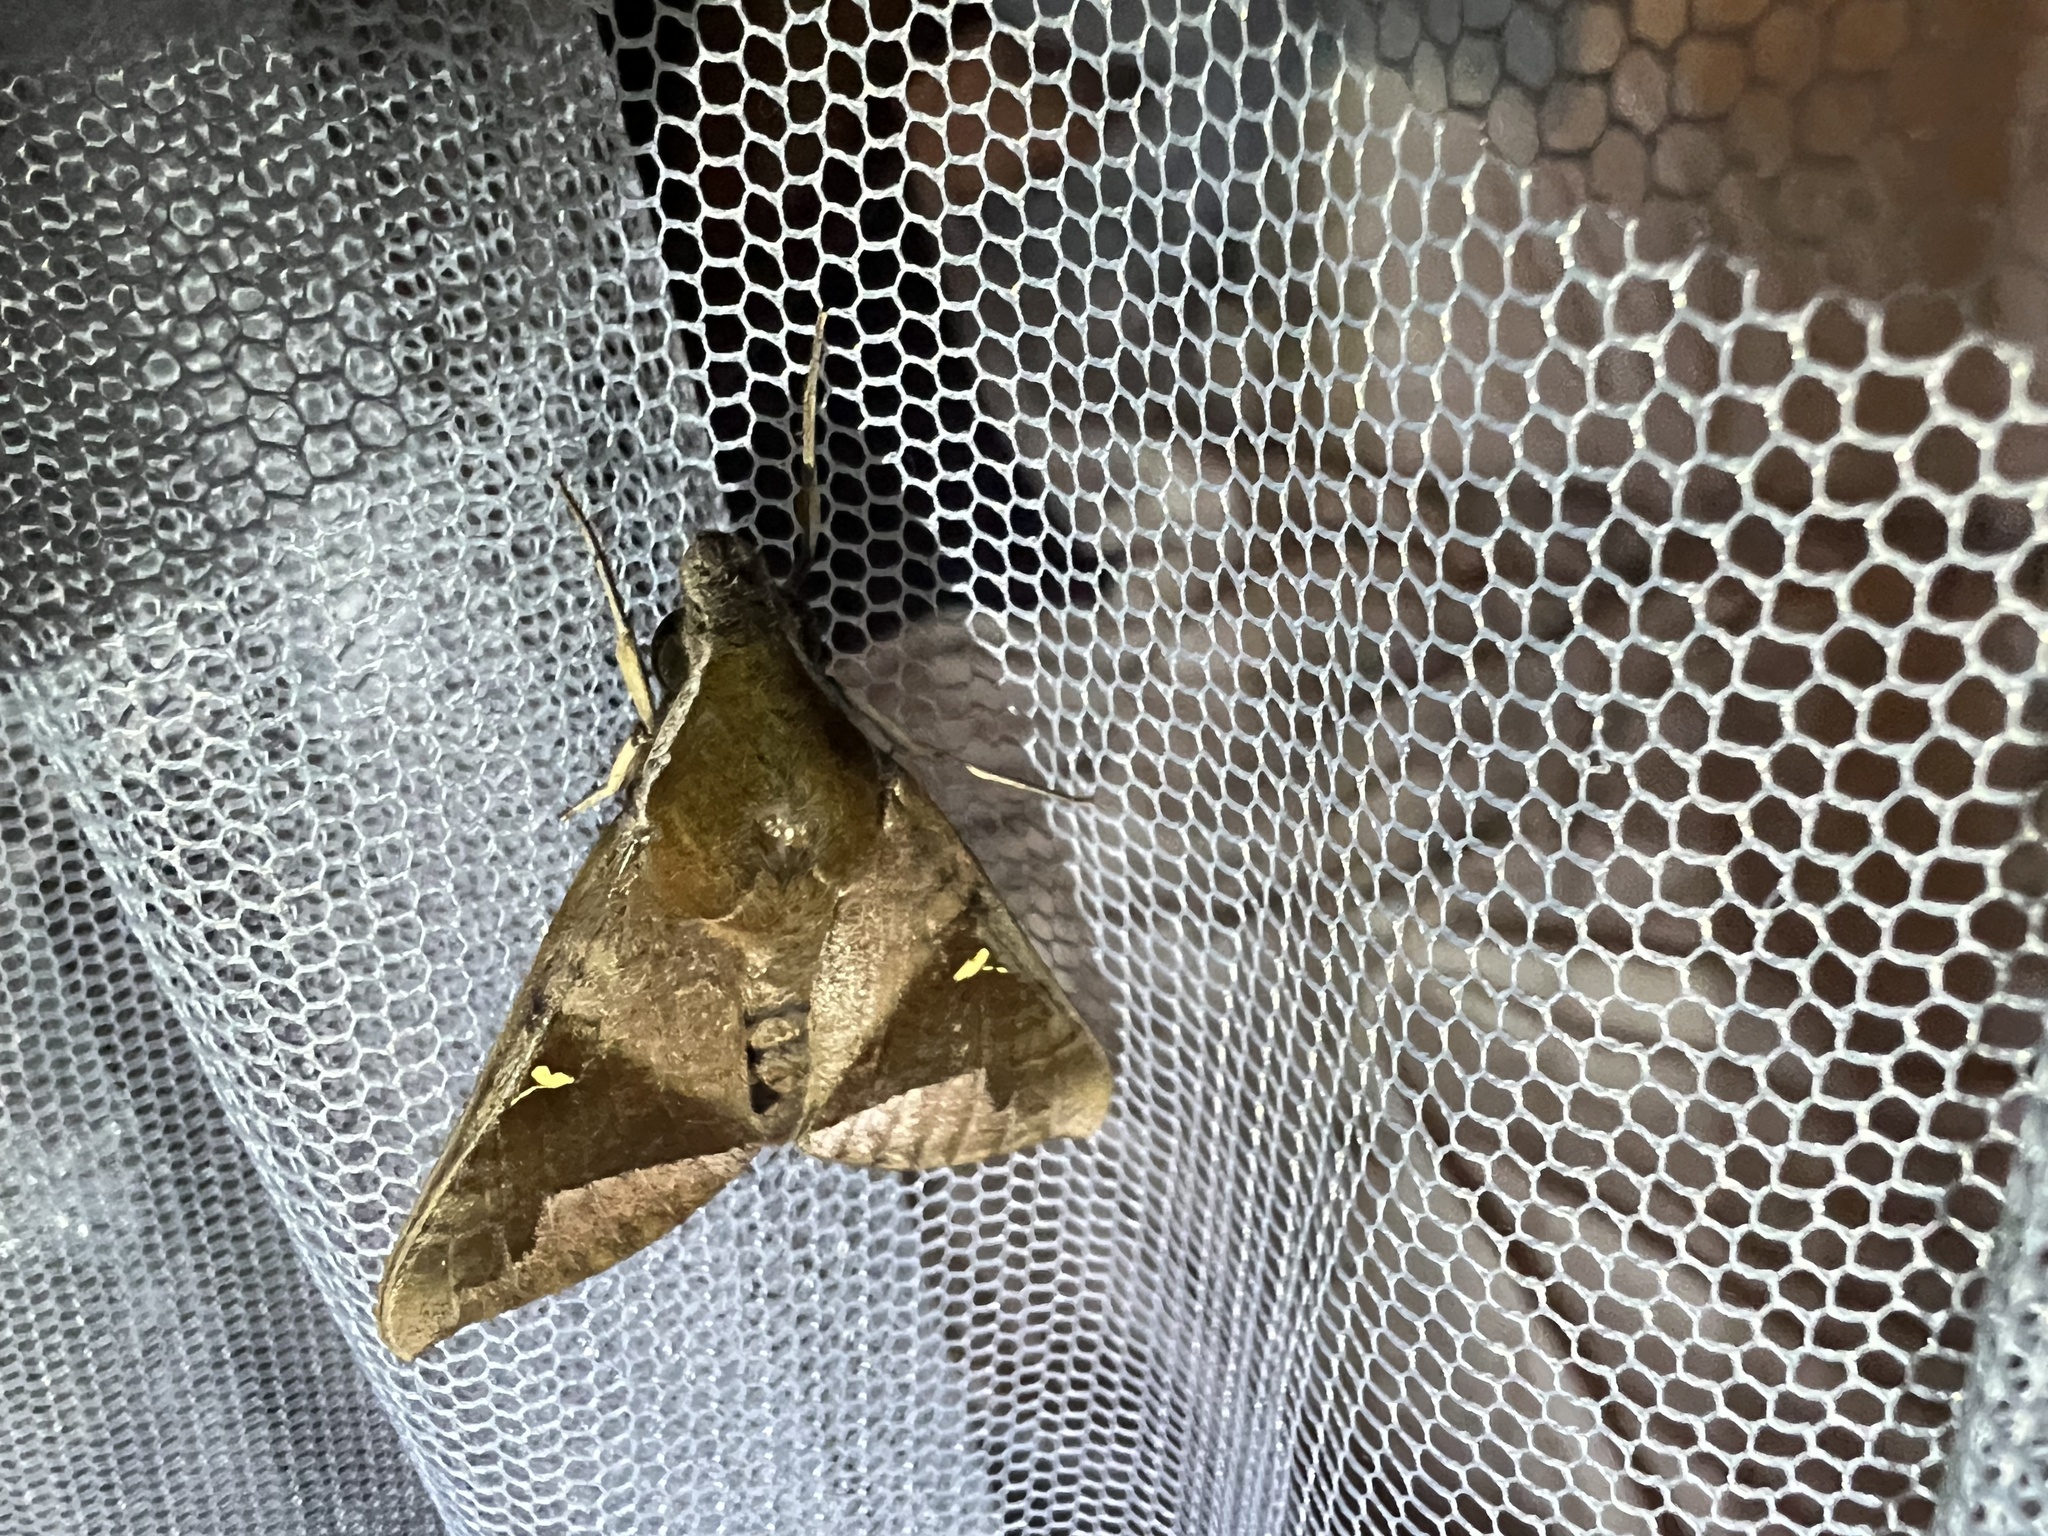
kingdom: Animalia
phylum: Arthropoda
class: Insecta
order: Lepidoptera
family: Sphingidae
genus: Nephele
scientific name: Nephele vau
